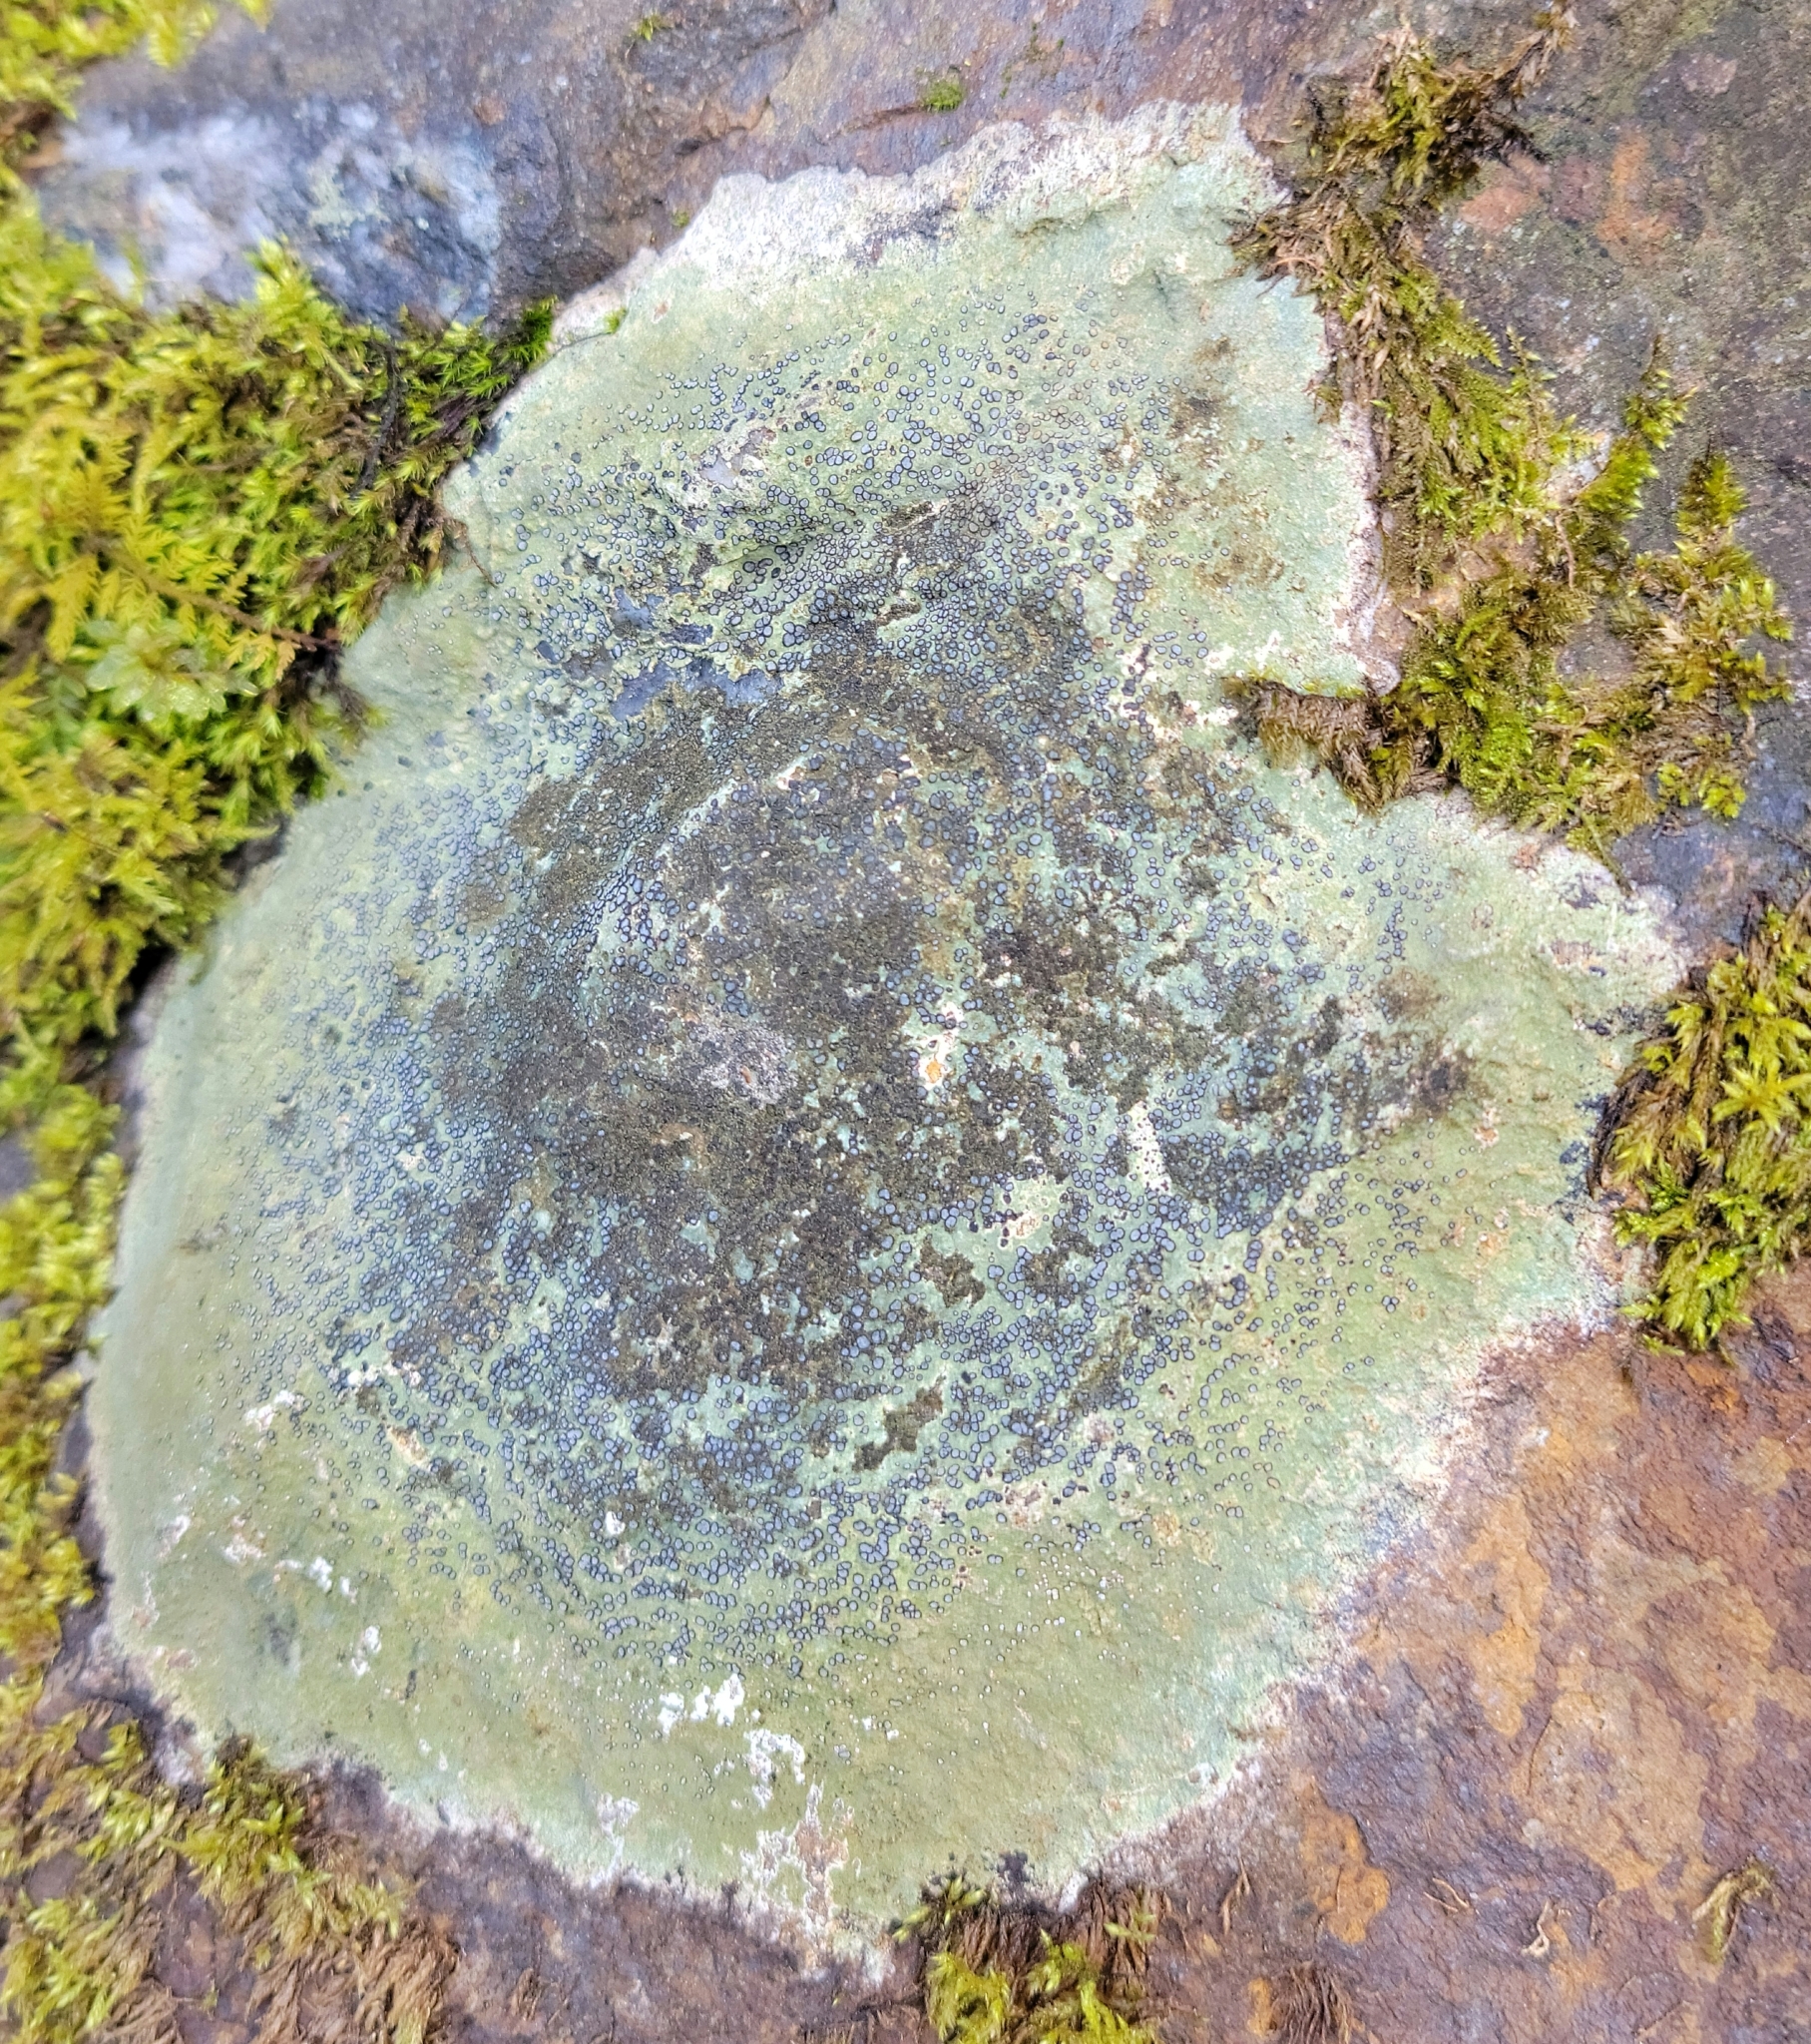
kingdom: Fungi
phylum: Ascomycota
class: Lecanoromycetes
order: Lecideales
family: Lecideaceae
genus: Porpidia
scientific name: Porpidia albocaerulescens
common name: Smokey-eyed boulder lichen
